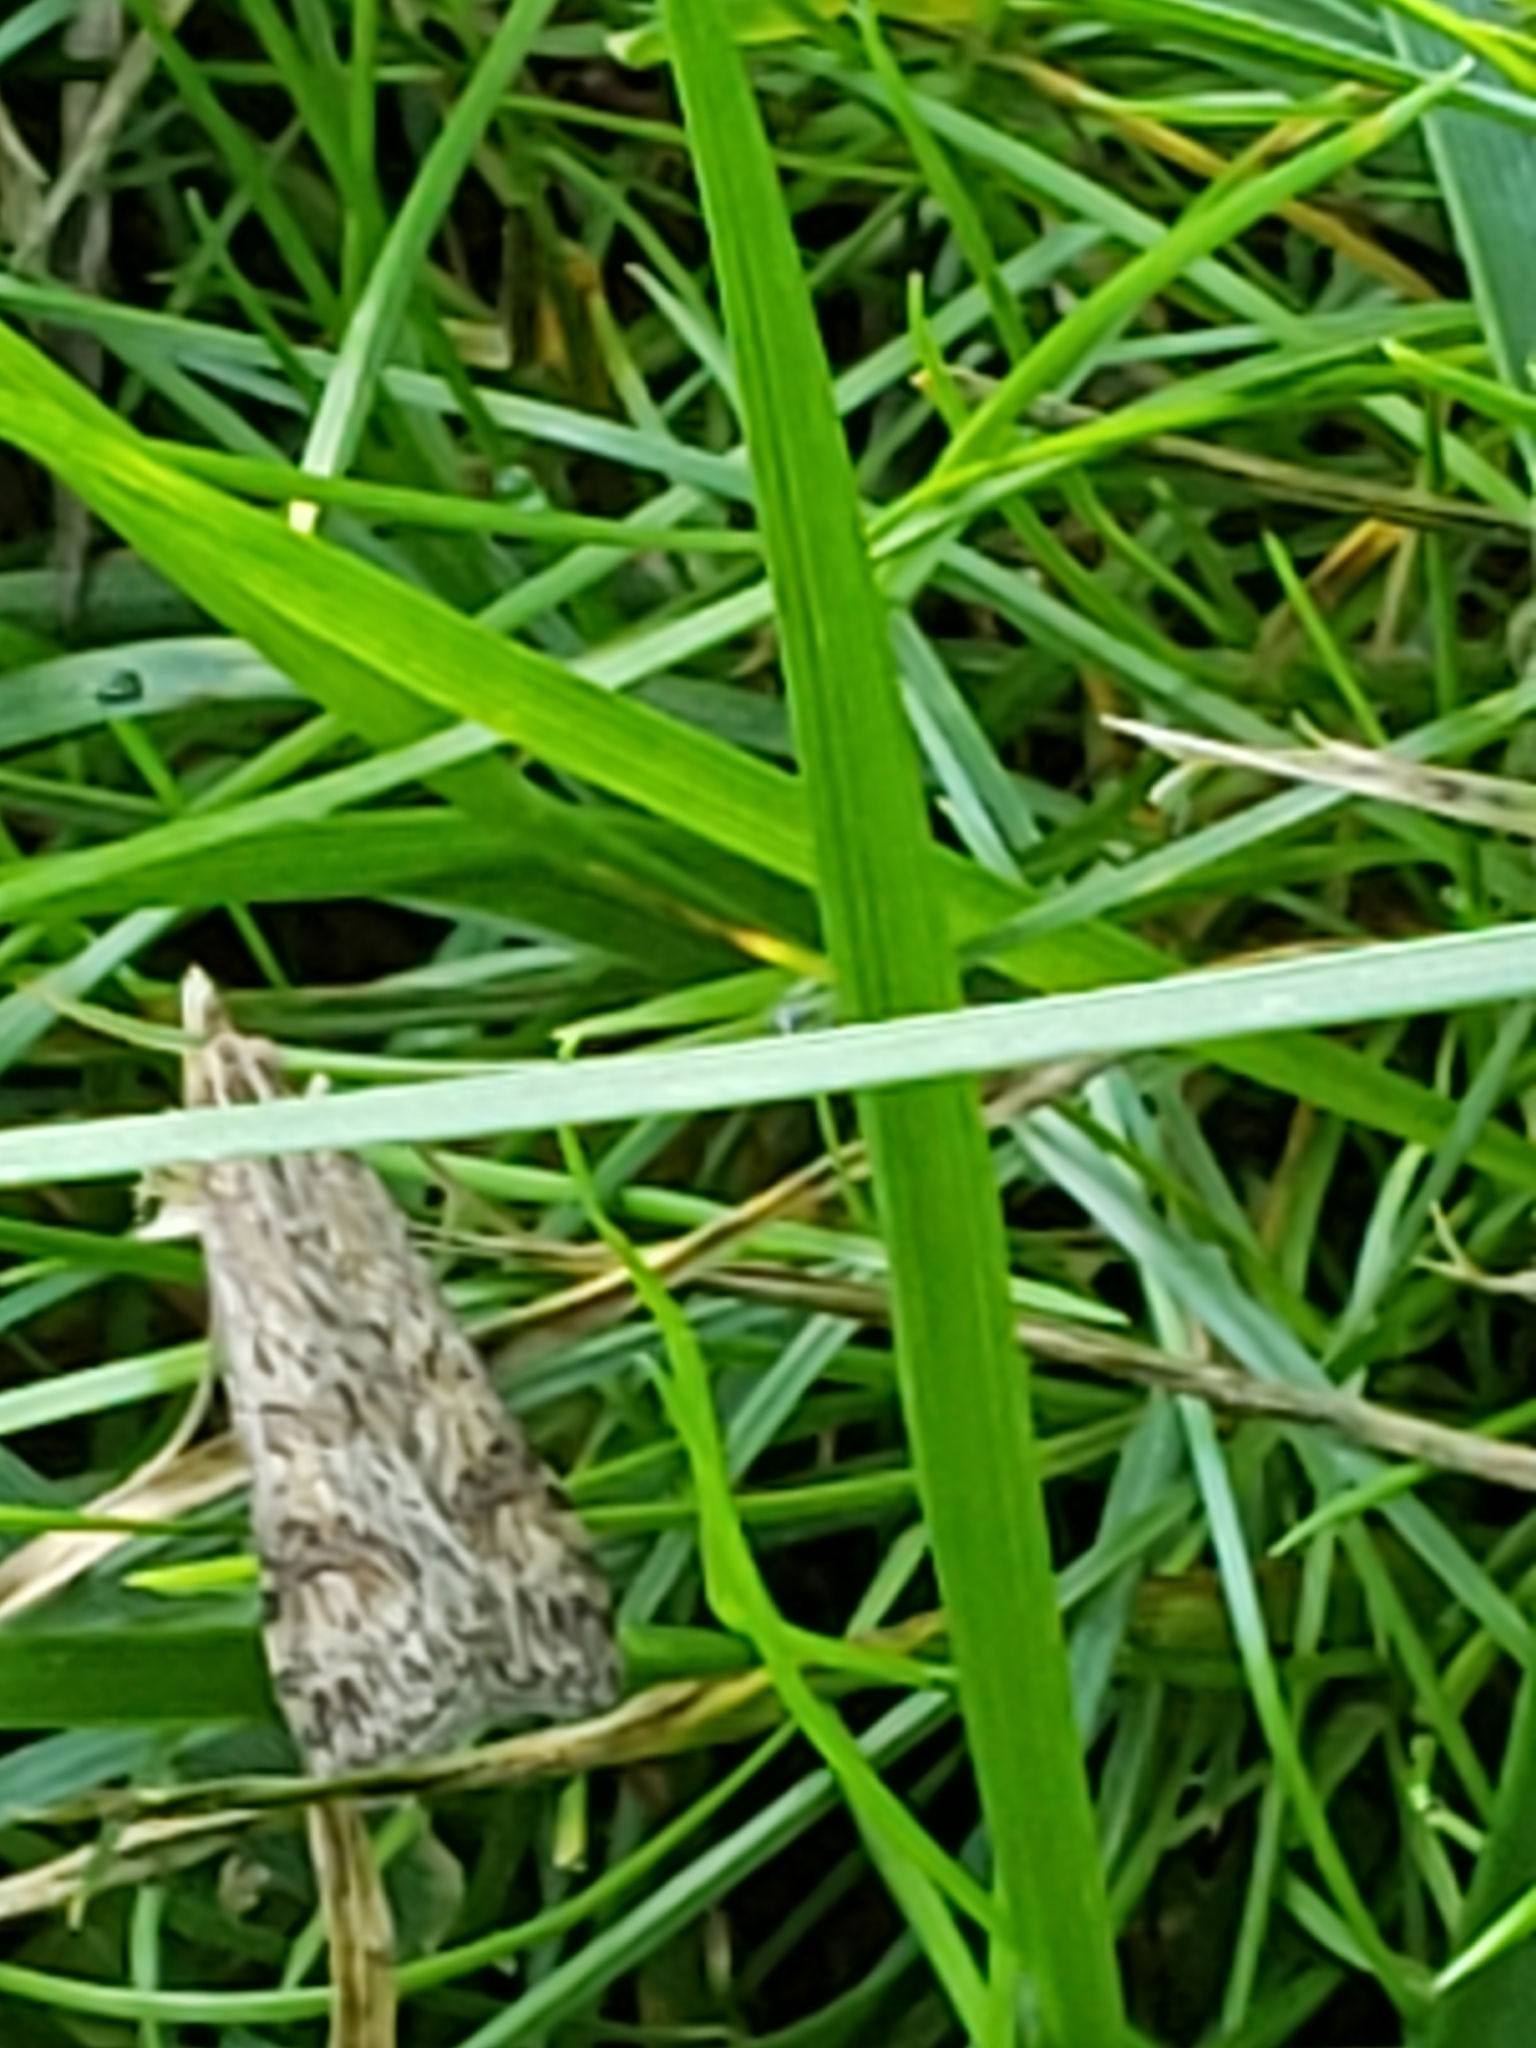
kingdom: Animalia
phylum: Arthropoda
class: Insecta
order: Lepidoptera
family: Crambidae
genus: Nomophila
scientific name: Nomophila nearctica
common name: American rush veneer
